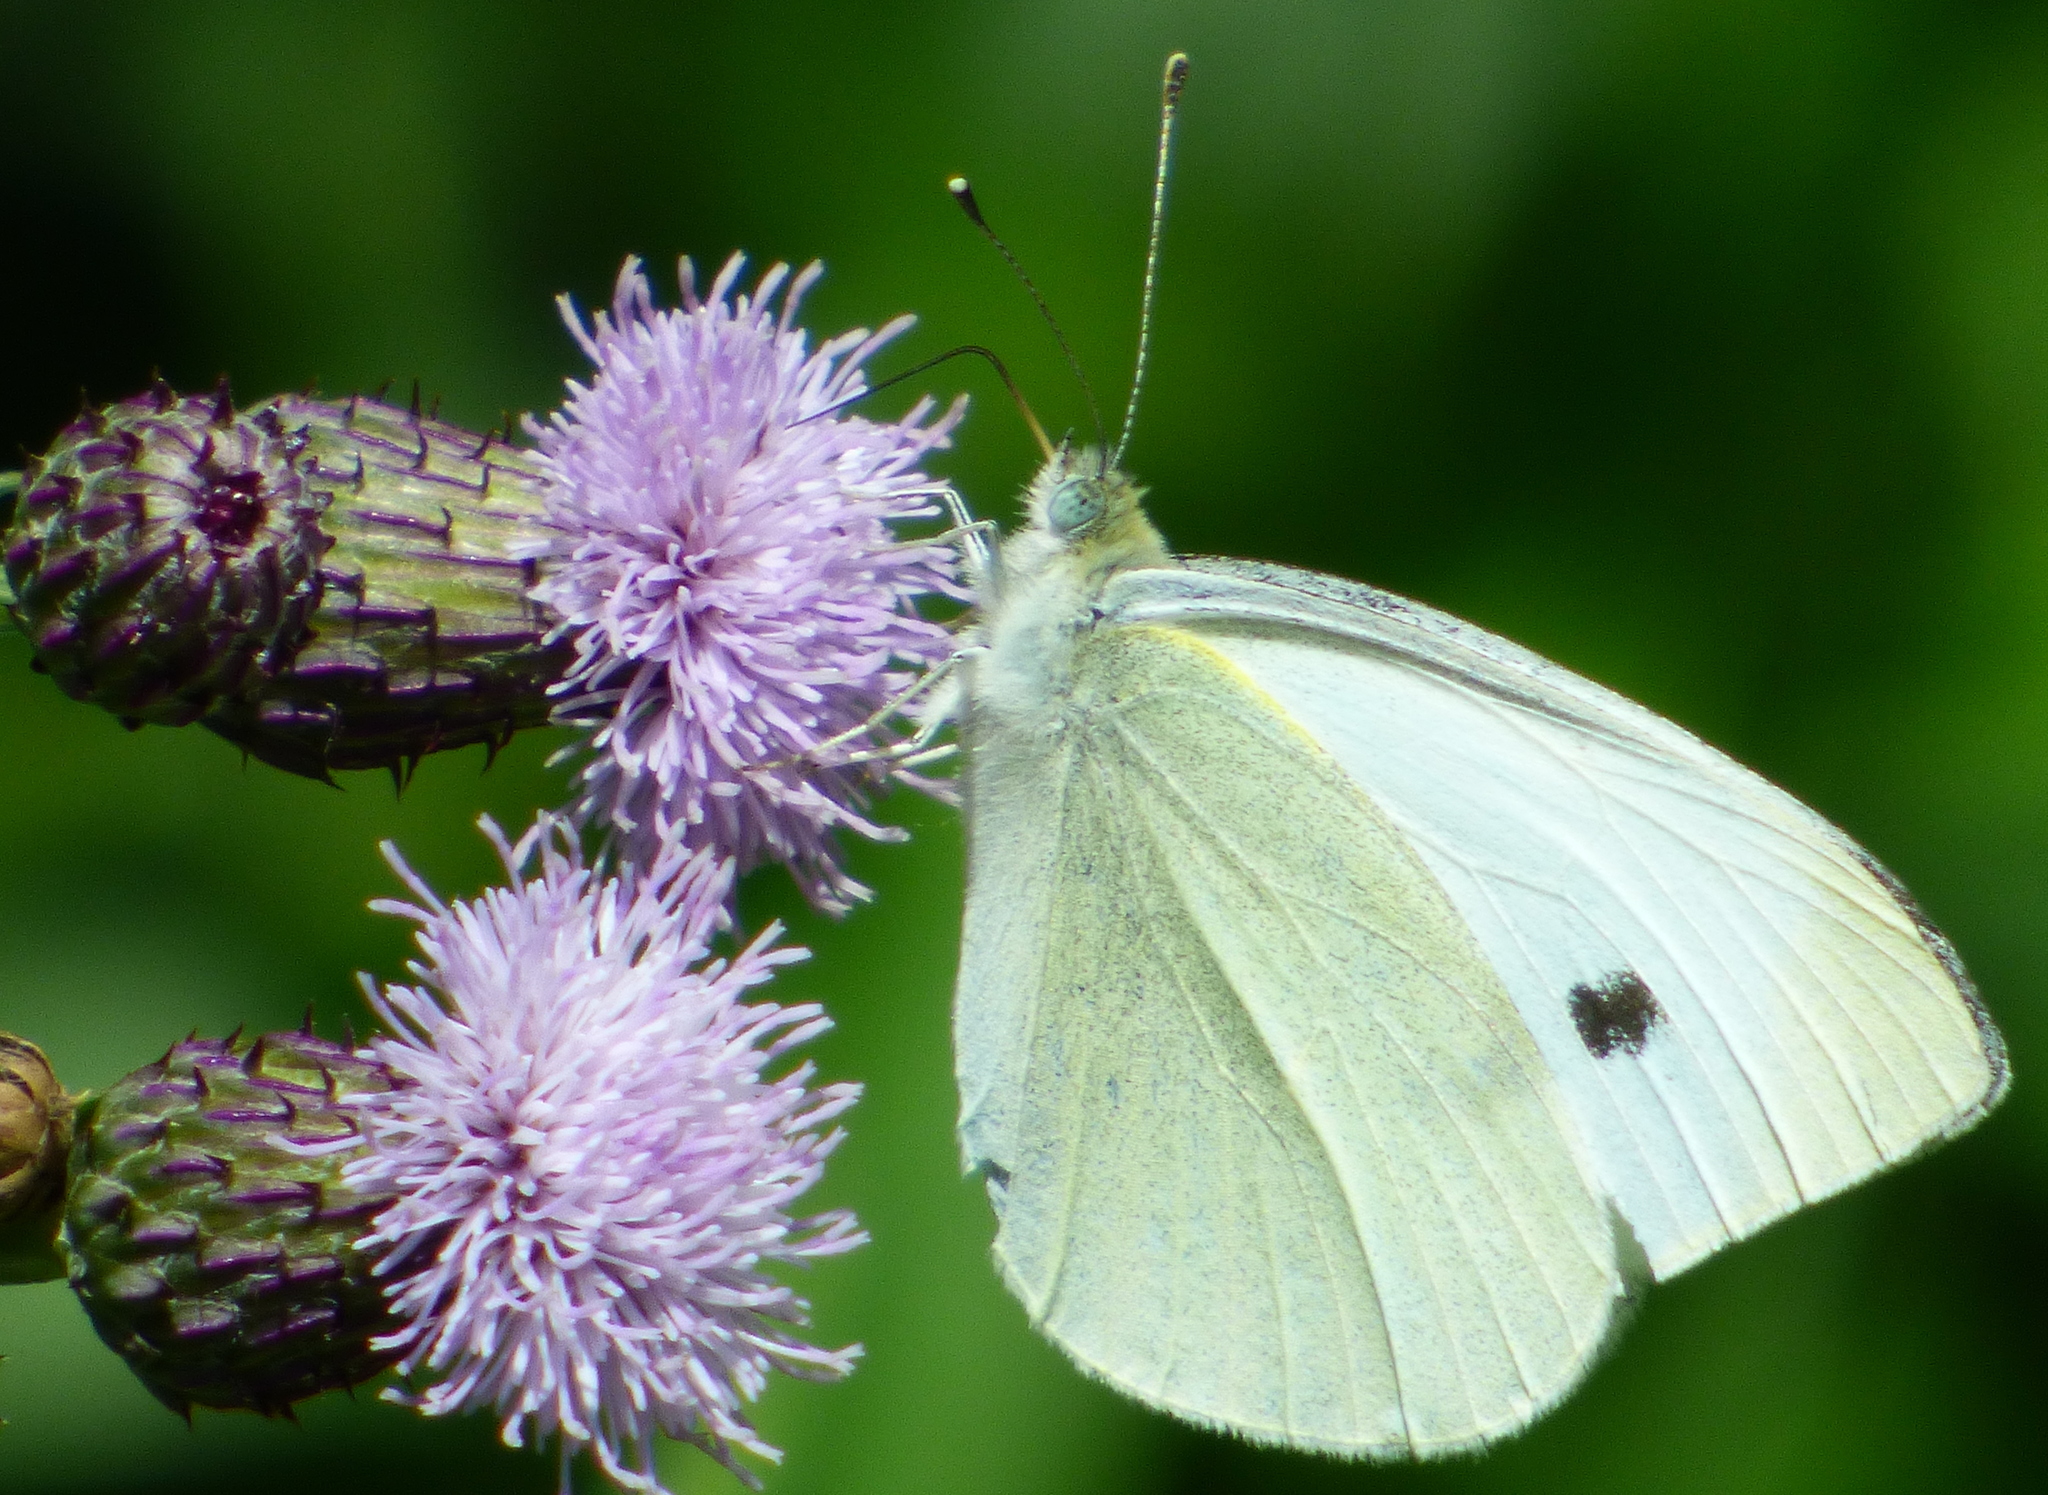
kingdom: Animalia
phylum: Arthropoda
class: Insecta
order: Lepidoptera
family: Pieridae
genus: Pieris
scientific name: Pieris rapae
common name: Small white
